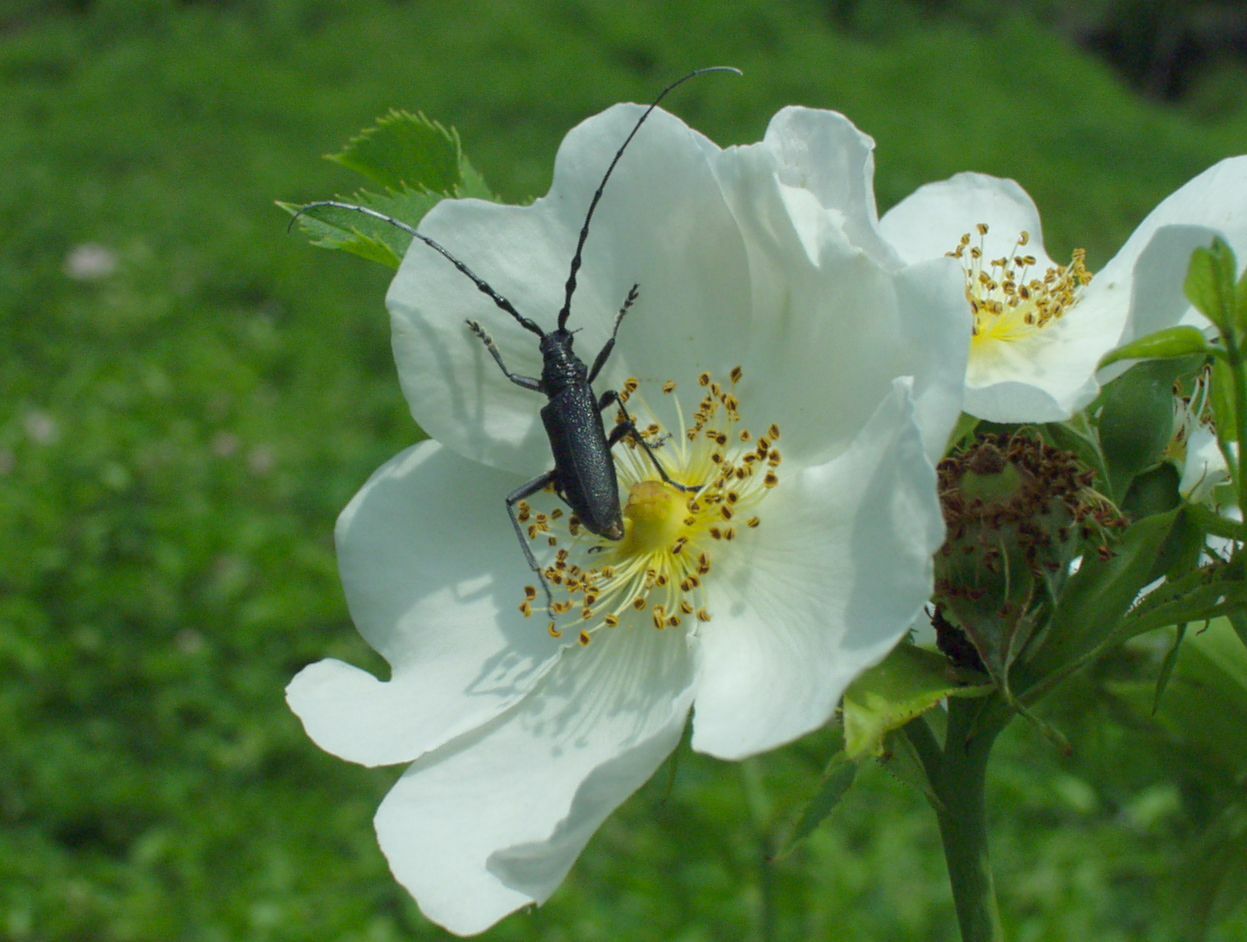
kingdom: Animalia
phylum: Arthropoda
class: Insecta
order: Coleoptera
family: Cerambycidae
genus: Cerambyx
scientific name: Cerambyx scopolii
